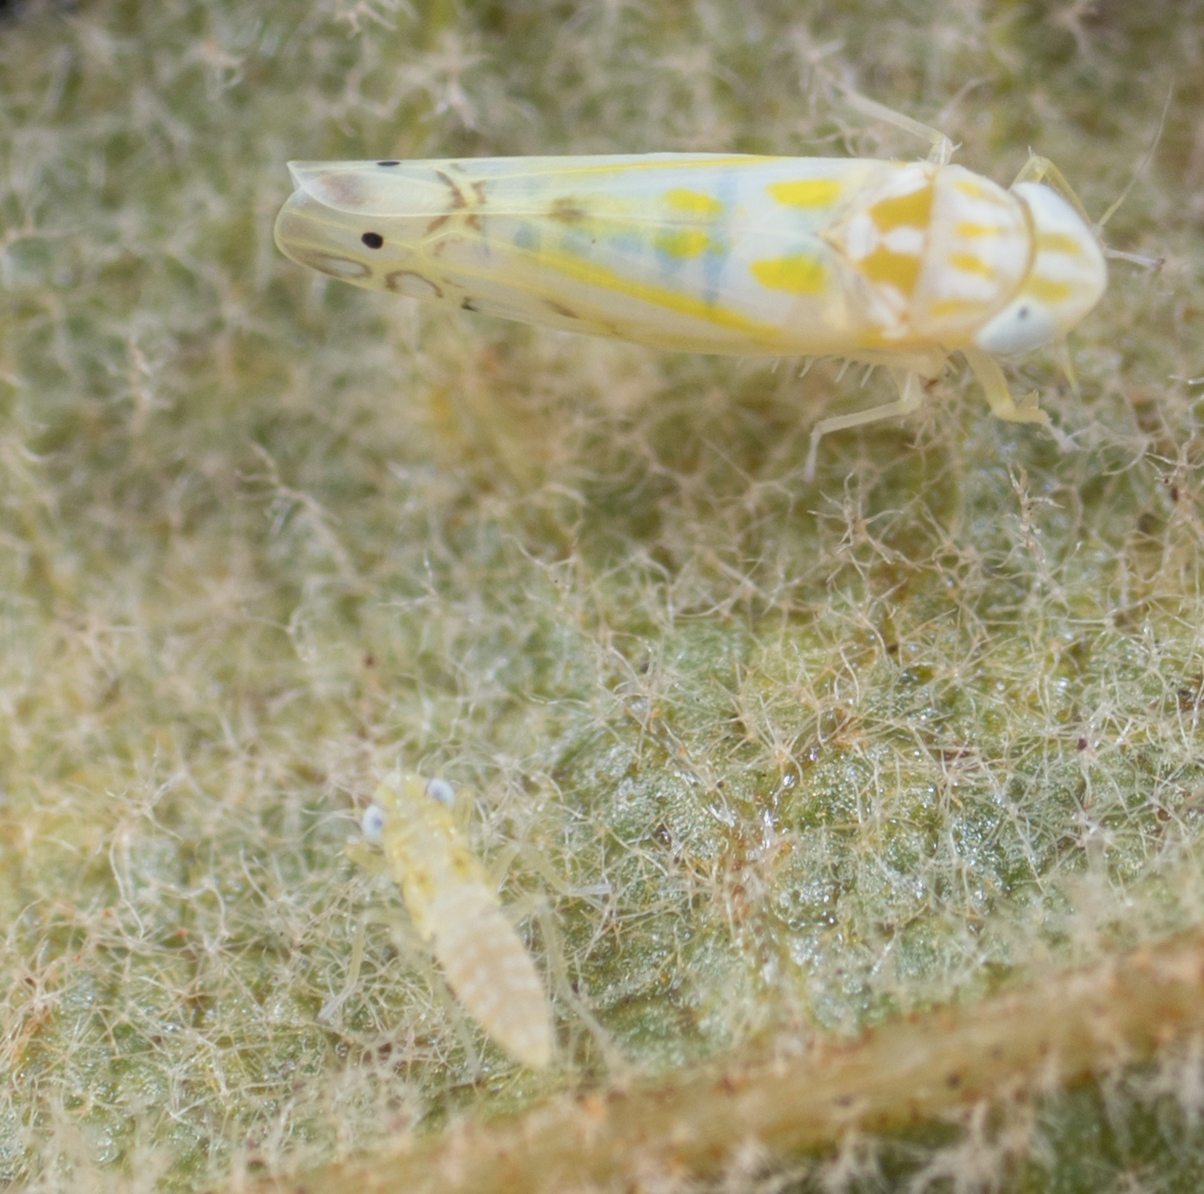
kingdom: Animalia
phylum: Arthropoda
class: Insecta
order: Hemiptera
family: Cicadellidae
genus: Alconeura
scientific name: Alconeura quadrimaculata
